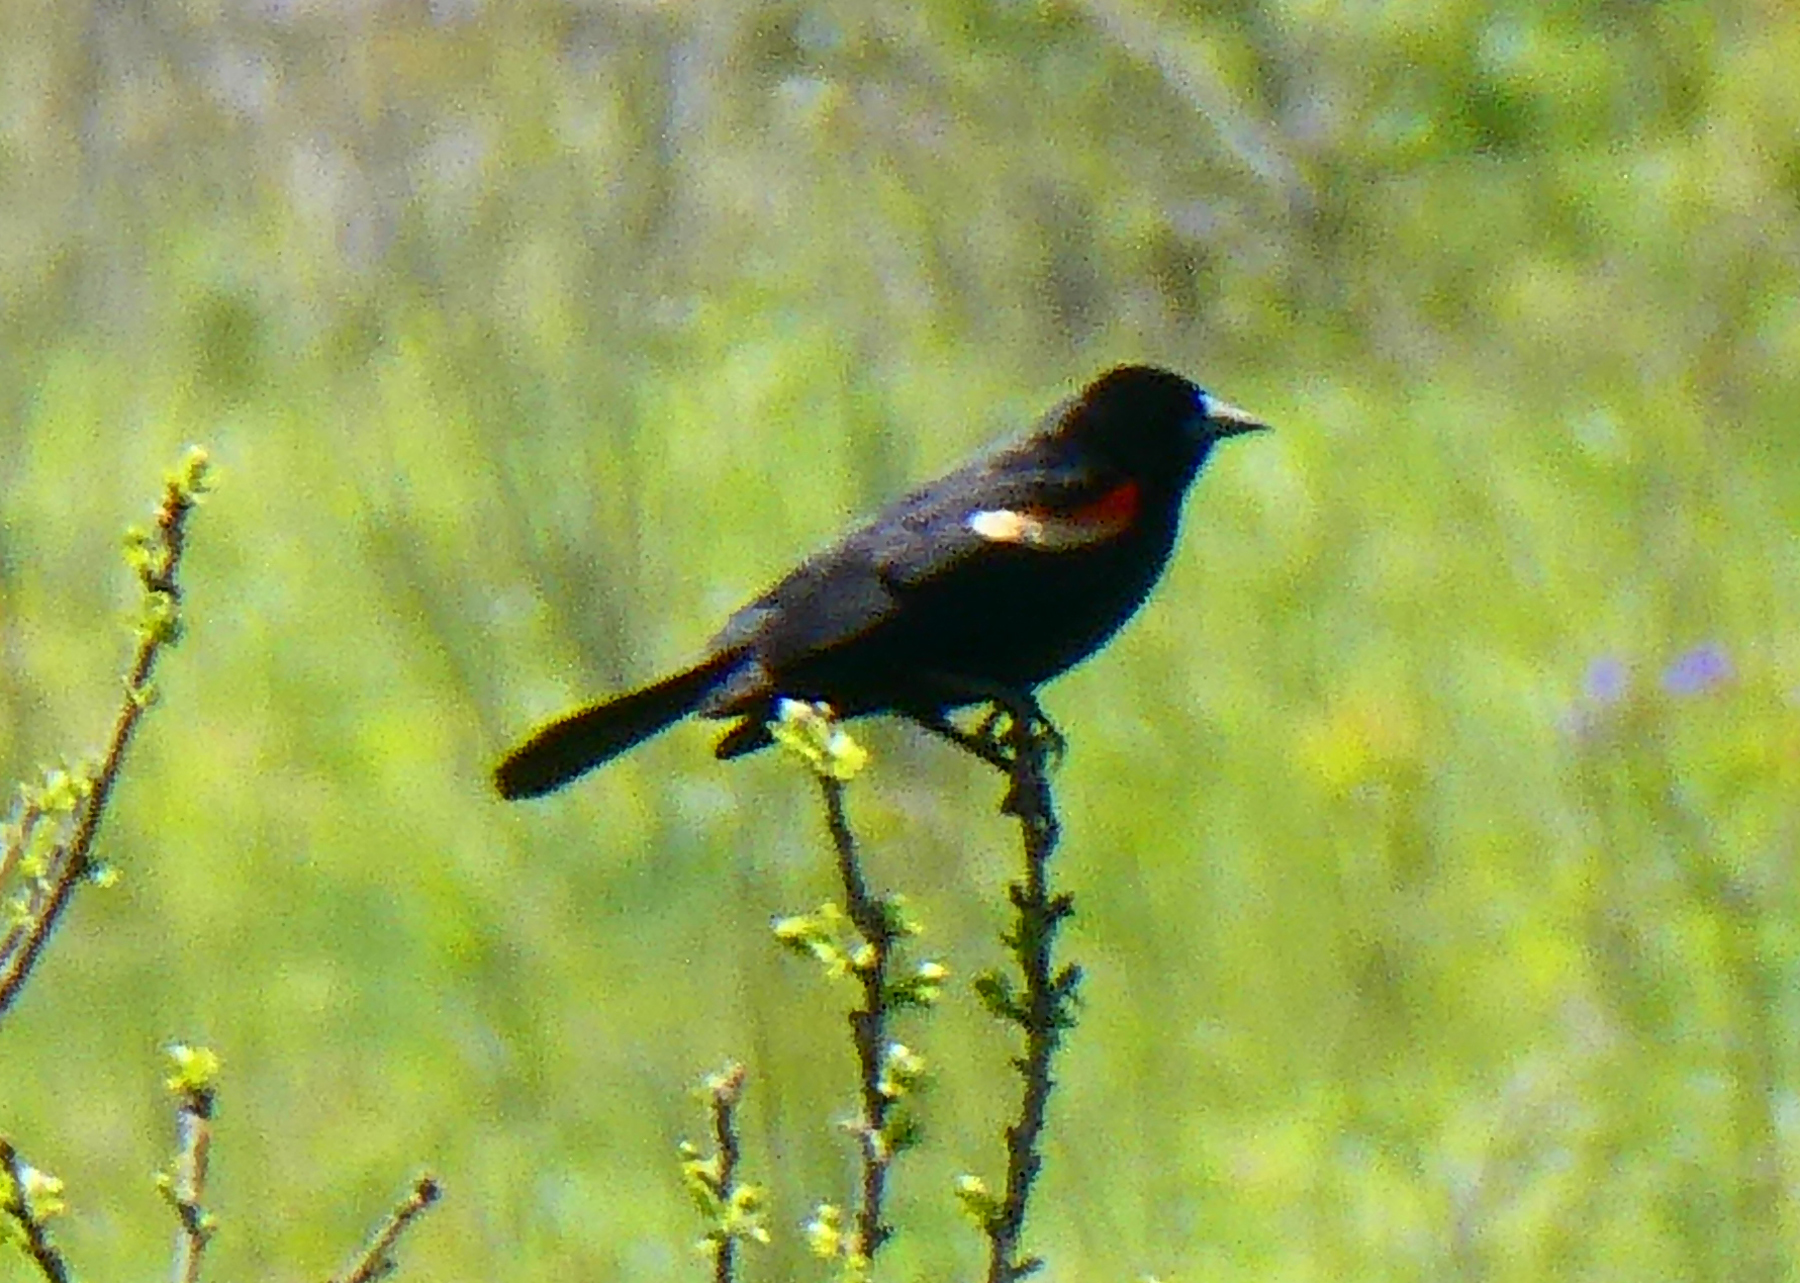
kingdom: Animalia
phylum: Chordata
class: Aves
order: Passeriformes
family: Icteridae
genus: Agelaius
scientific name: Agelaius phoeniceus
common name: Red-winged blackbird
